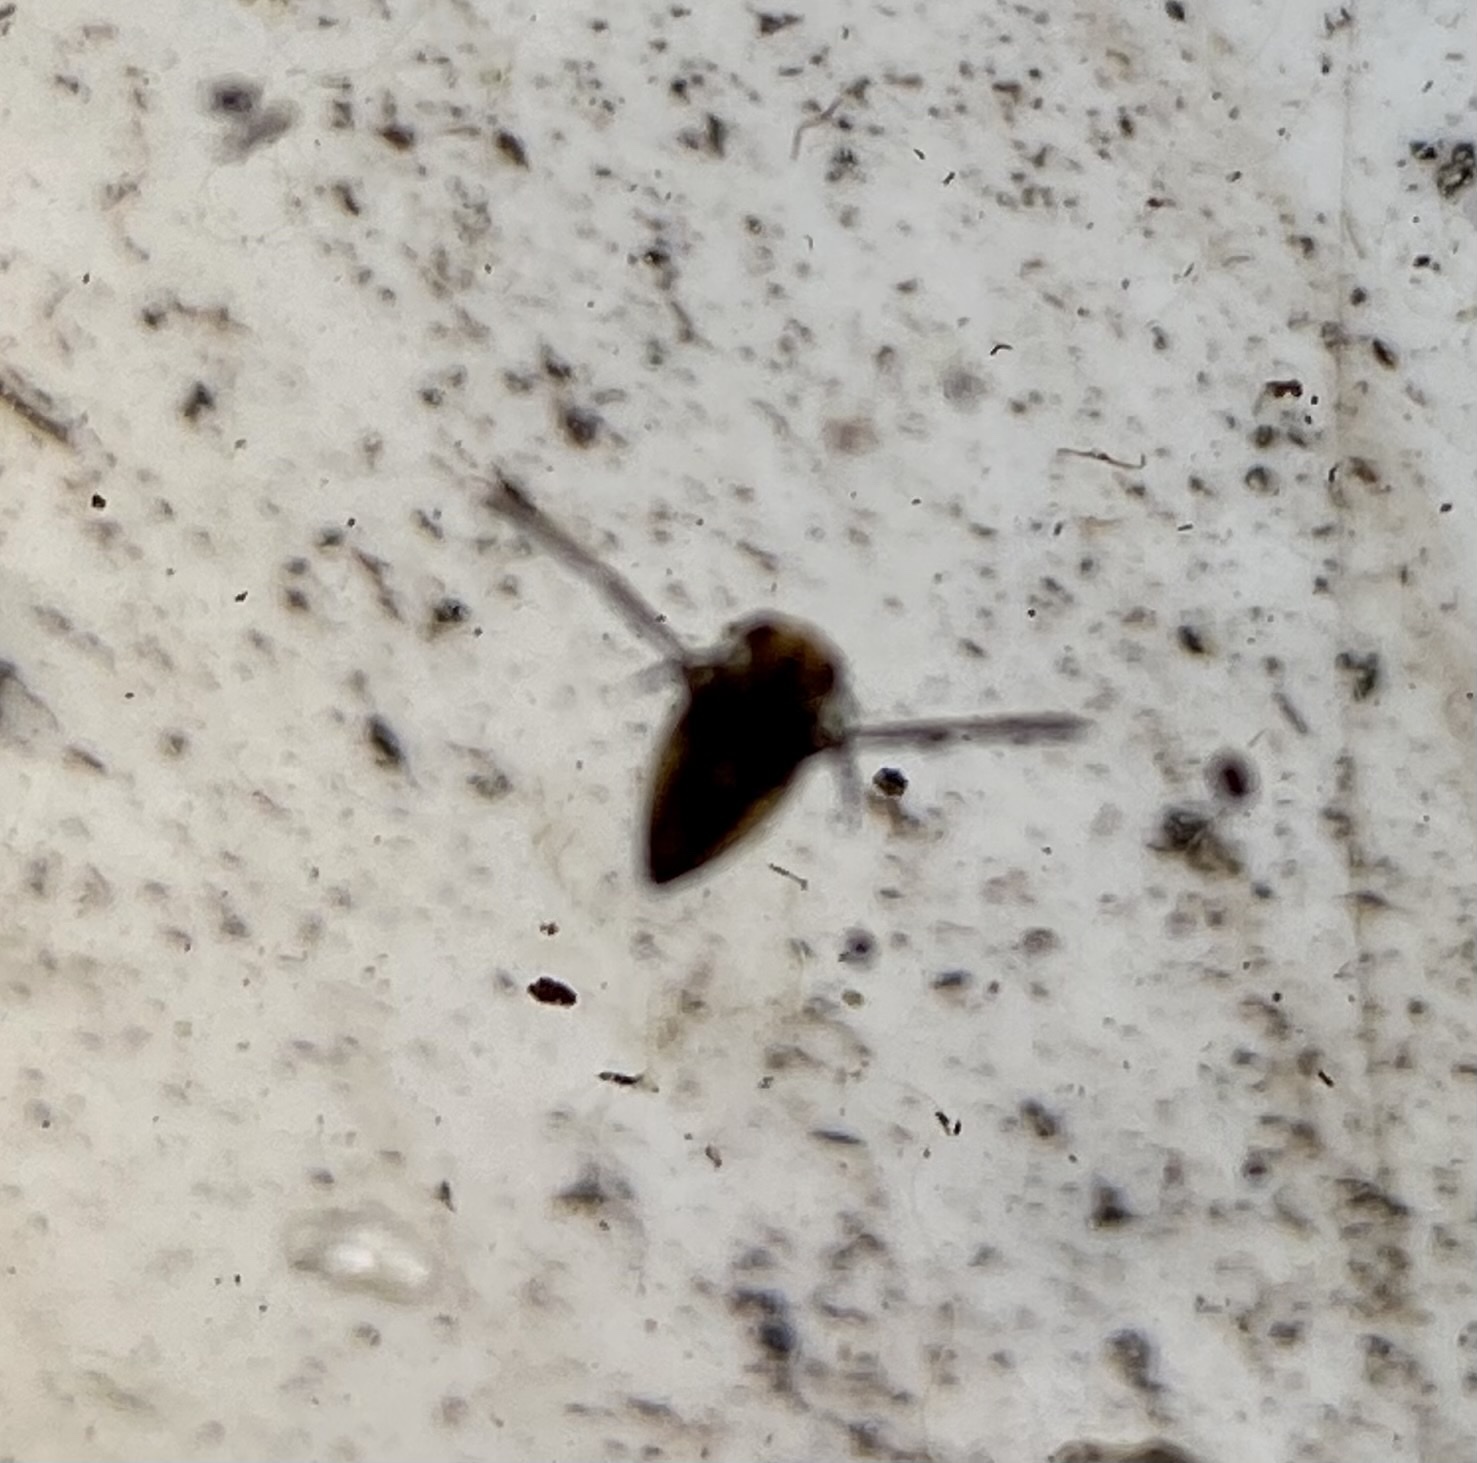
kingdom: Animalia
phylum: Arthropoda
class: Insecta
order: Hemiptera
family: Notonectidae
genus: Notonecta
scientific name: Notonecta
